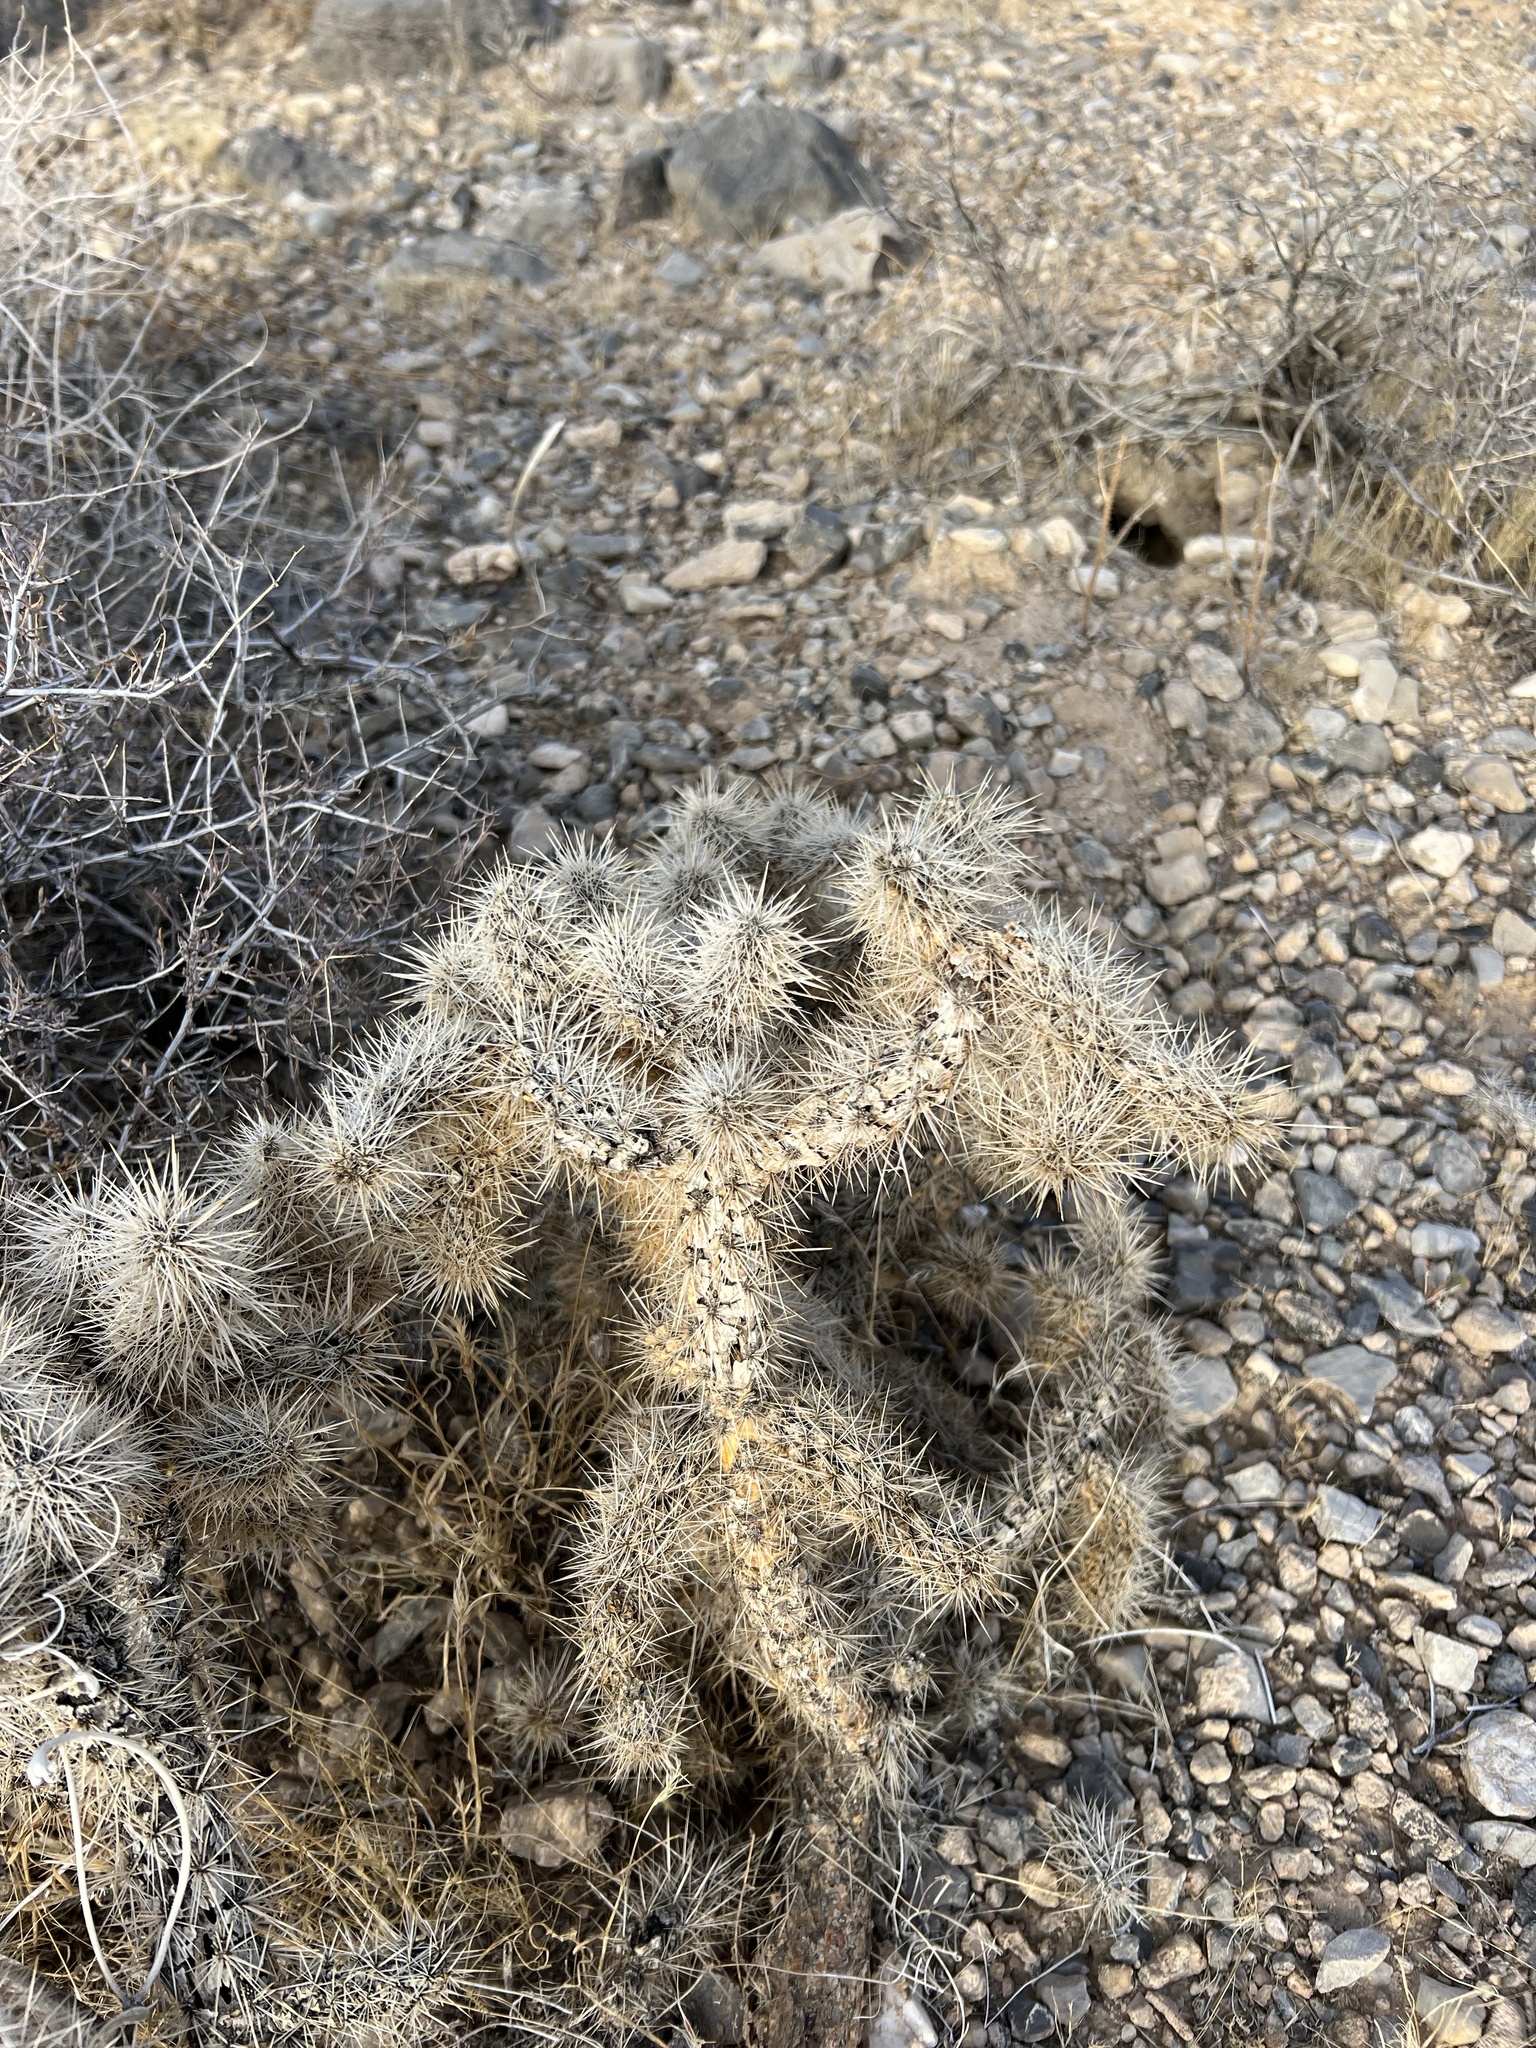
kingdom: Plantae
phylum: Tracheophyta
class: Magnoliopsida
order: Caryophyllales
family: Cactaceae
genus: Cylindropuntia
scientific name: Cylindropuntia echinocarpa
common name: Ground cholla
